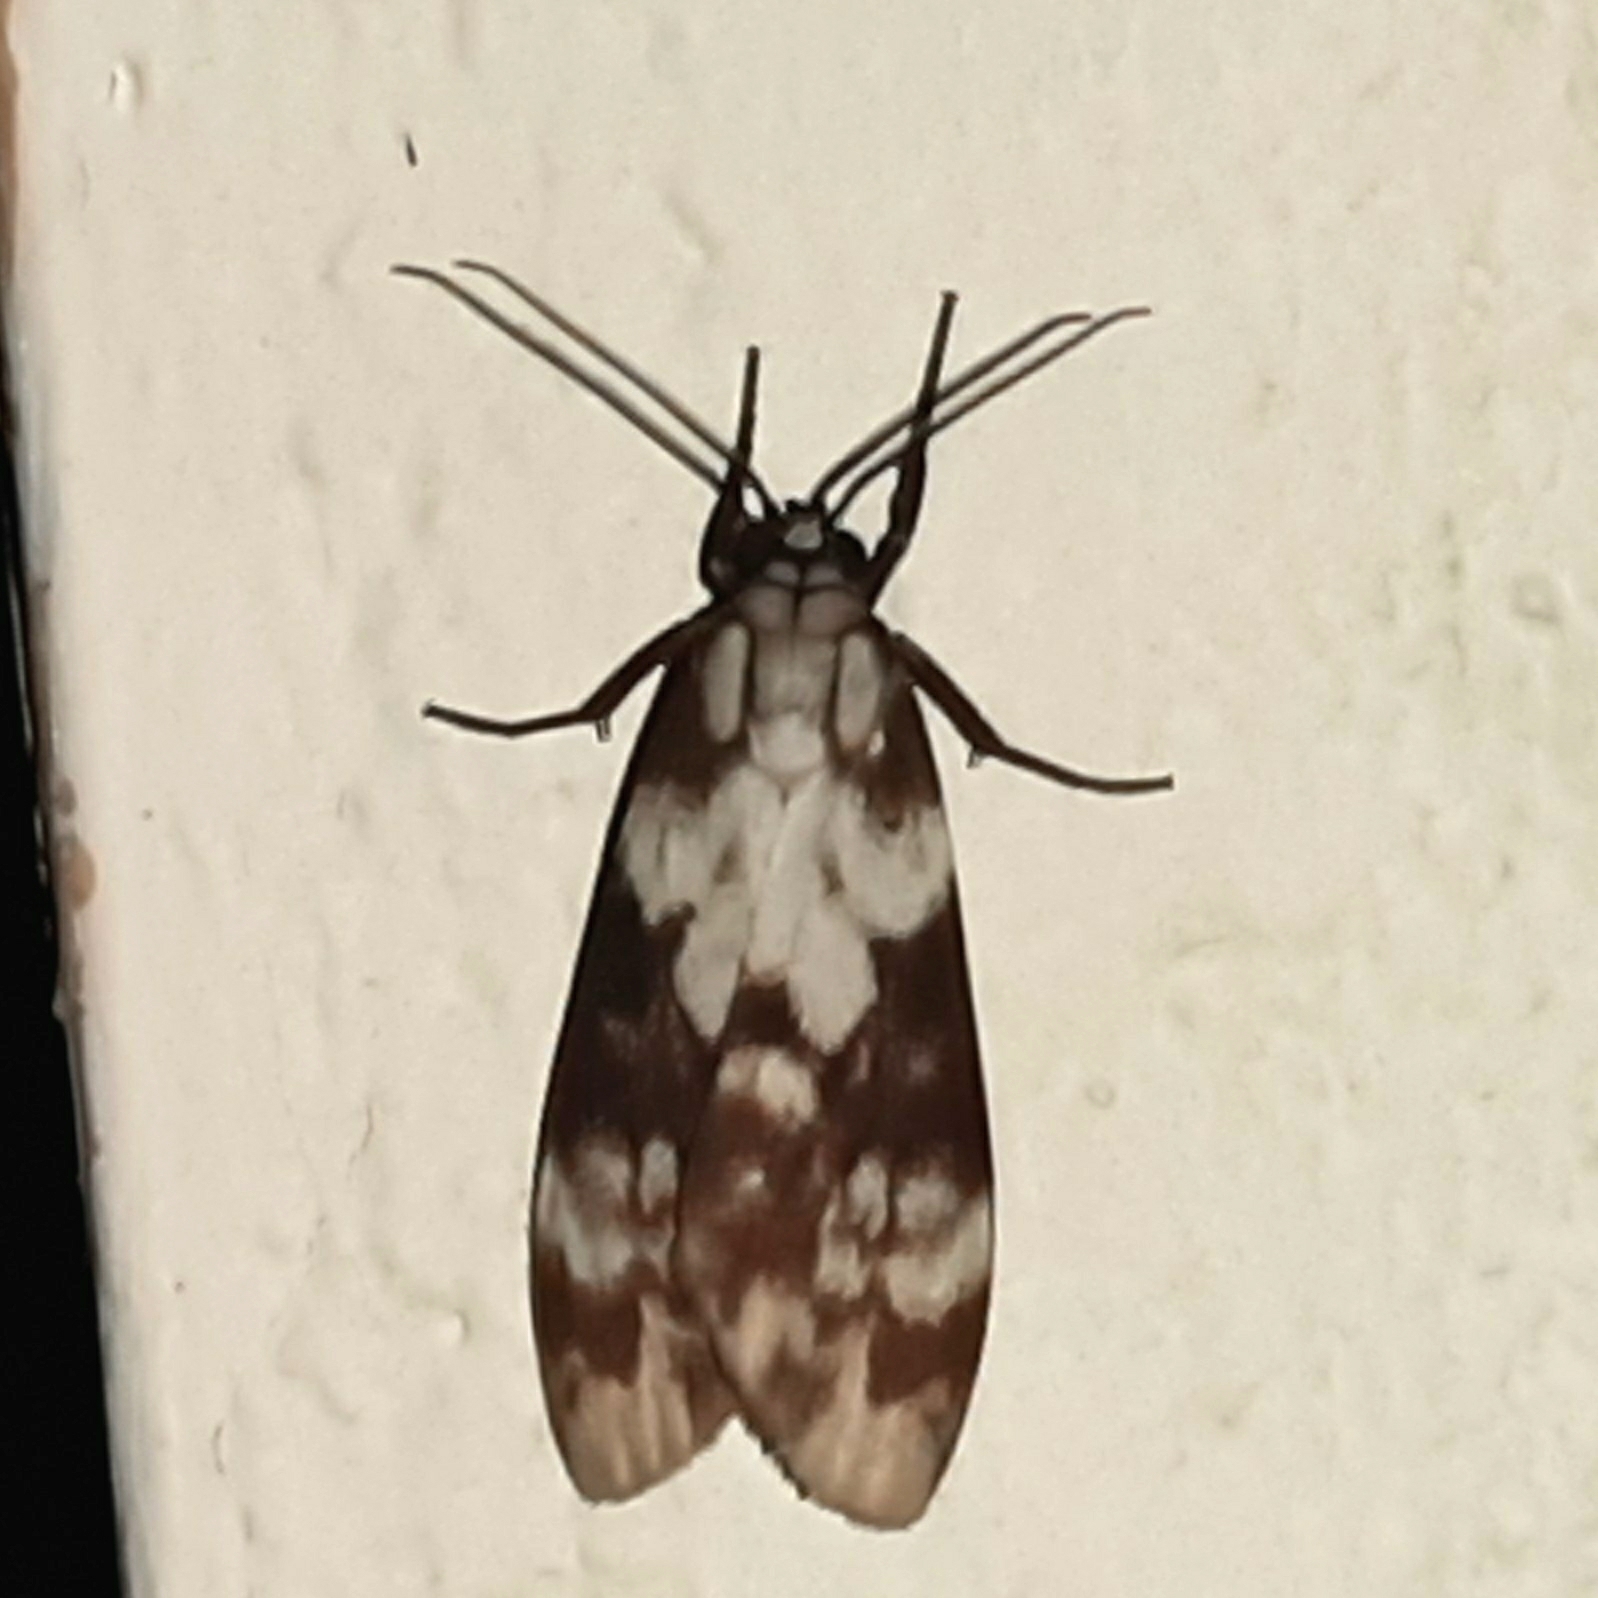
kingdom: Animalia
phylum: Arthropoda
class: Insecta
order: Lepidoptera
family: Erebidae
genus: Eucereon
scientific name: Eucereon discolor
